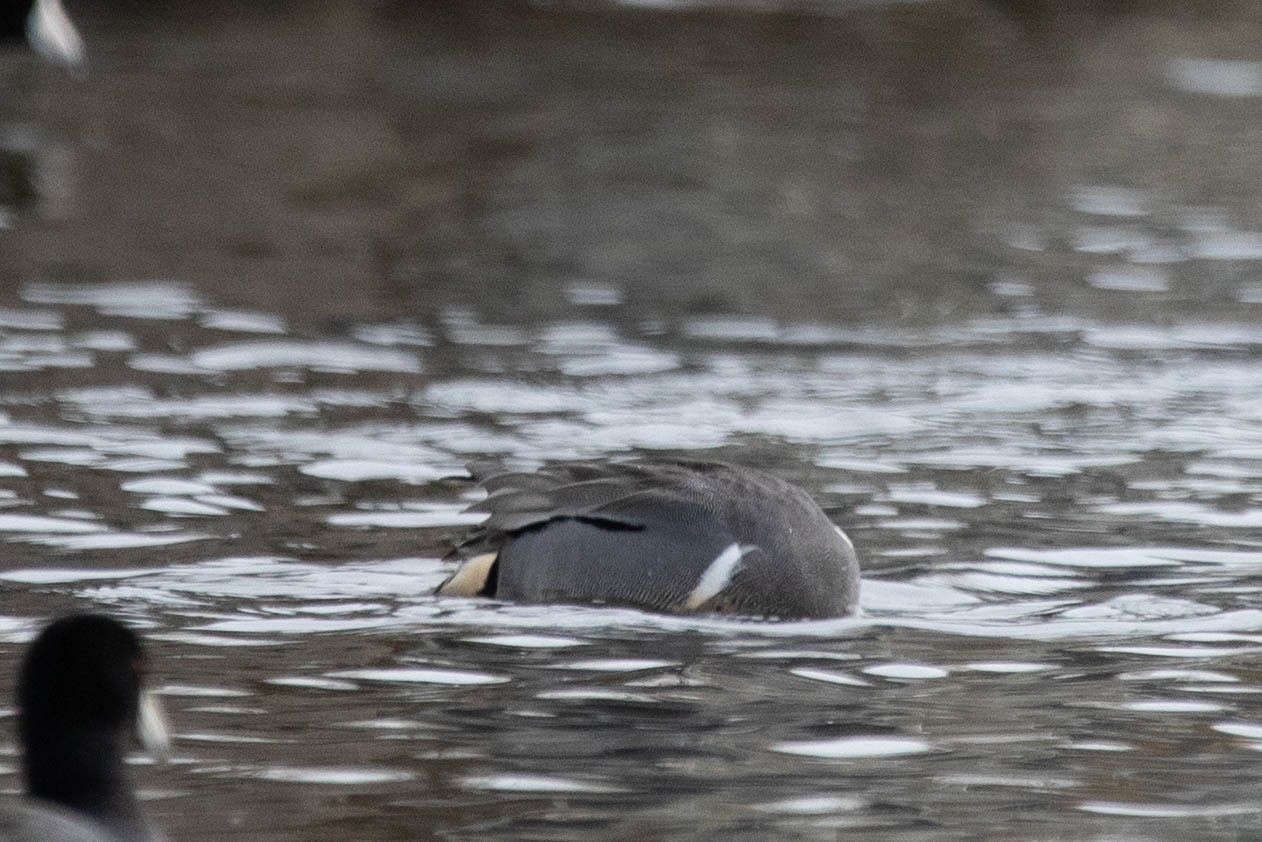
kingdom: Animalia
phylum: Chordata
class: Aves
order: Anseriformes
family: Anatidae
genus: Anas
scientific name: Anas carolinensis
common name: Green-winged teal
